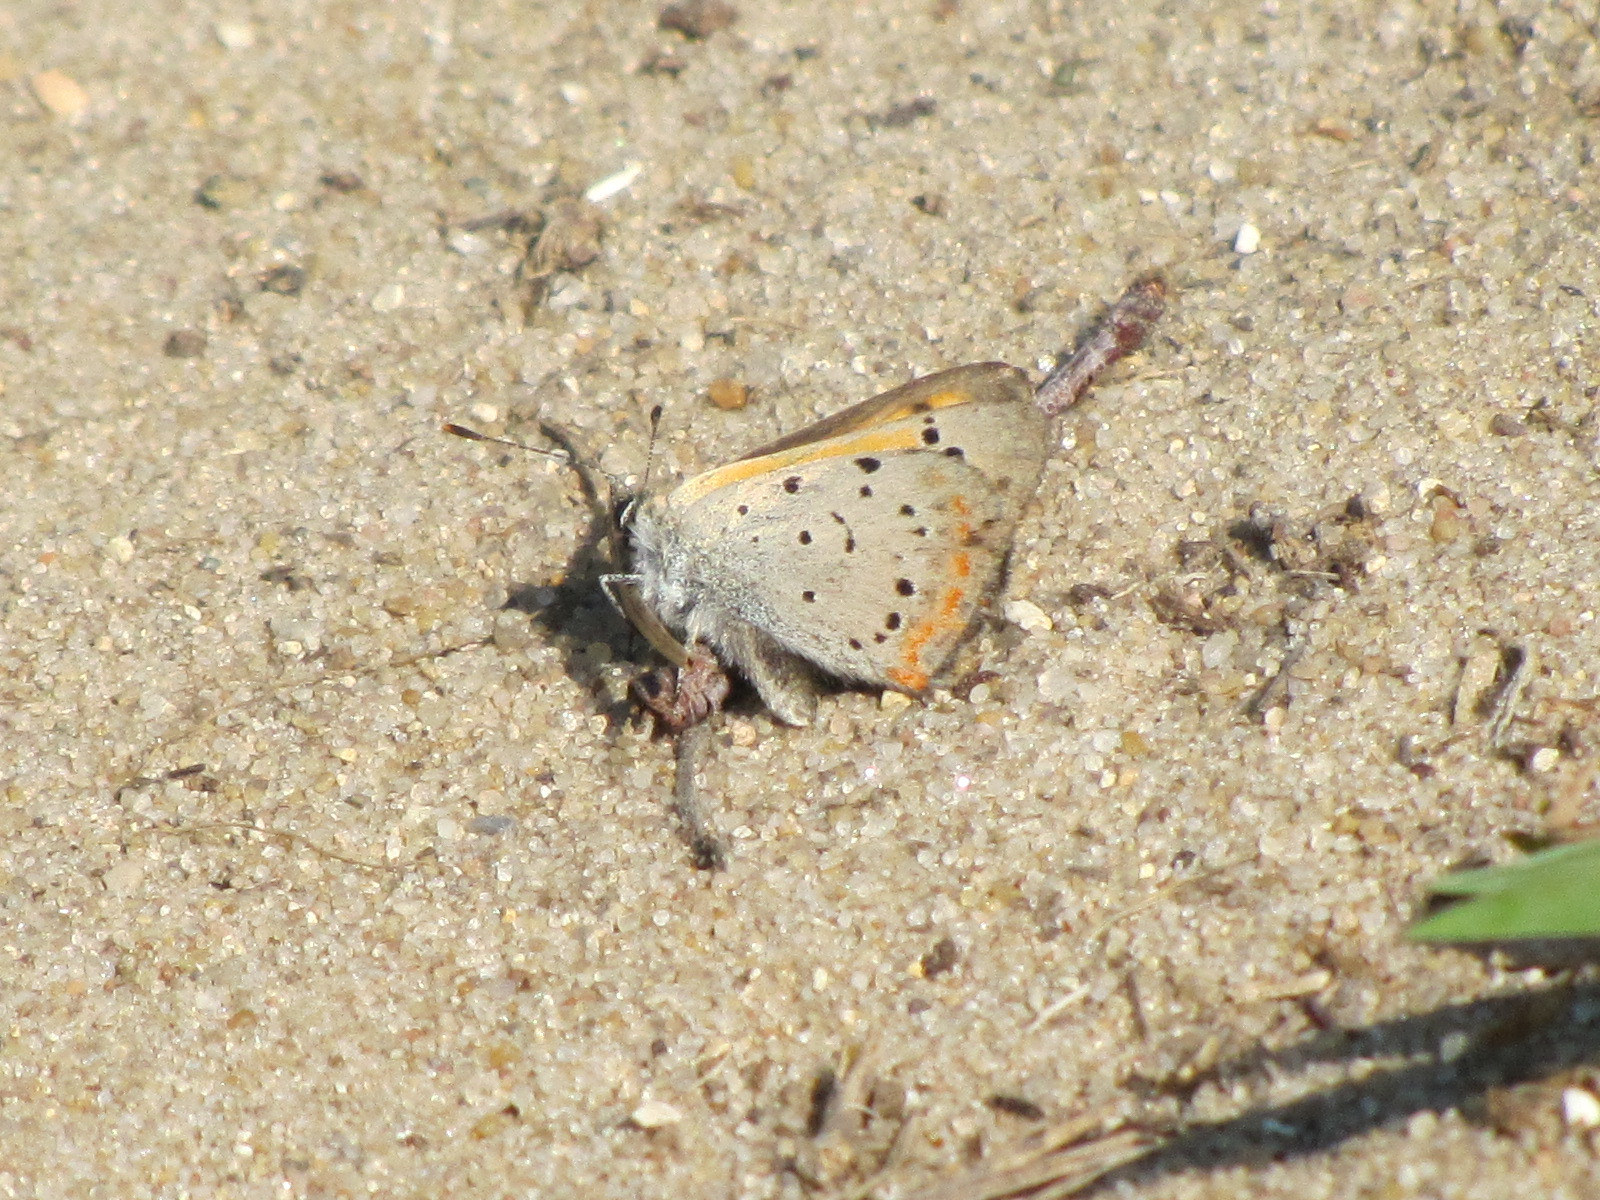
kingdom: Animalia
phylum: Arthropoda
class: Insecta
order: Lepidoptera
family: Lycaenidae
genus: Lycaena
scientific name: Lycaena hypophlaeas
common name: American copper
